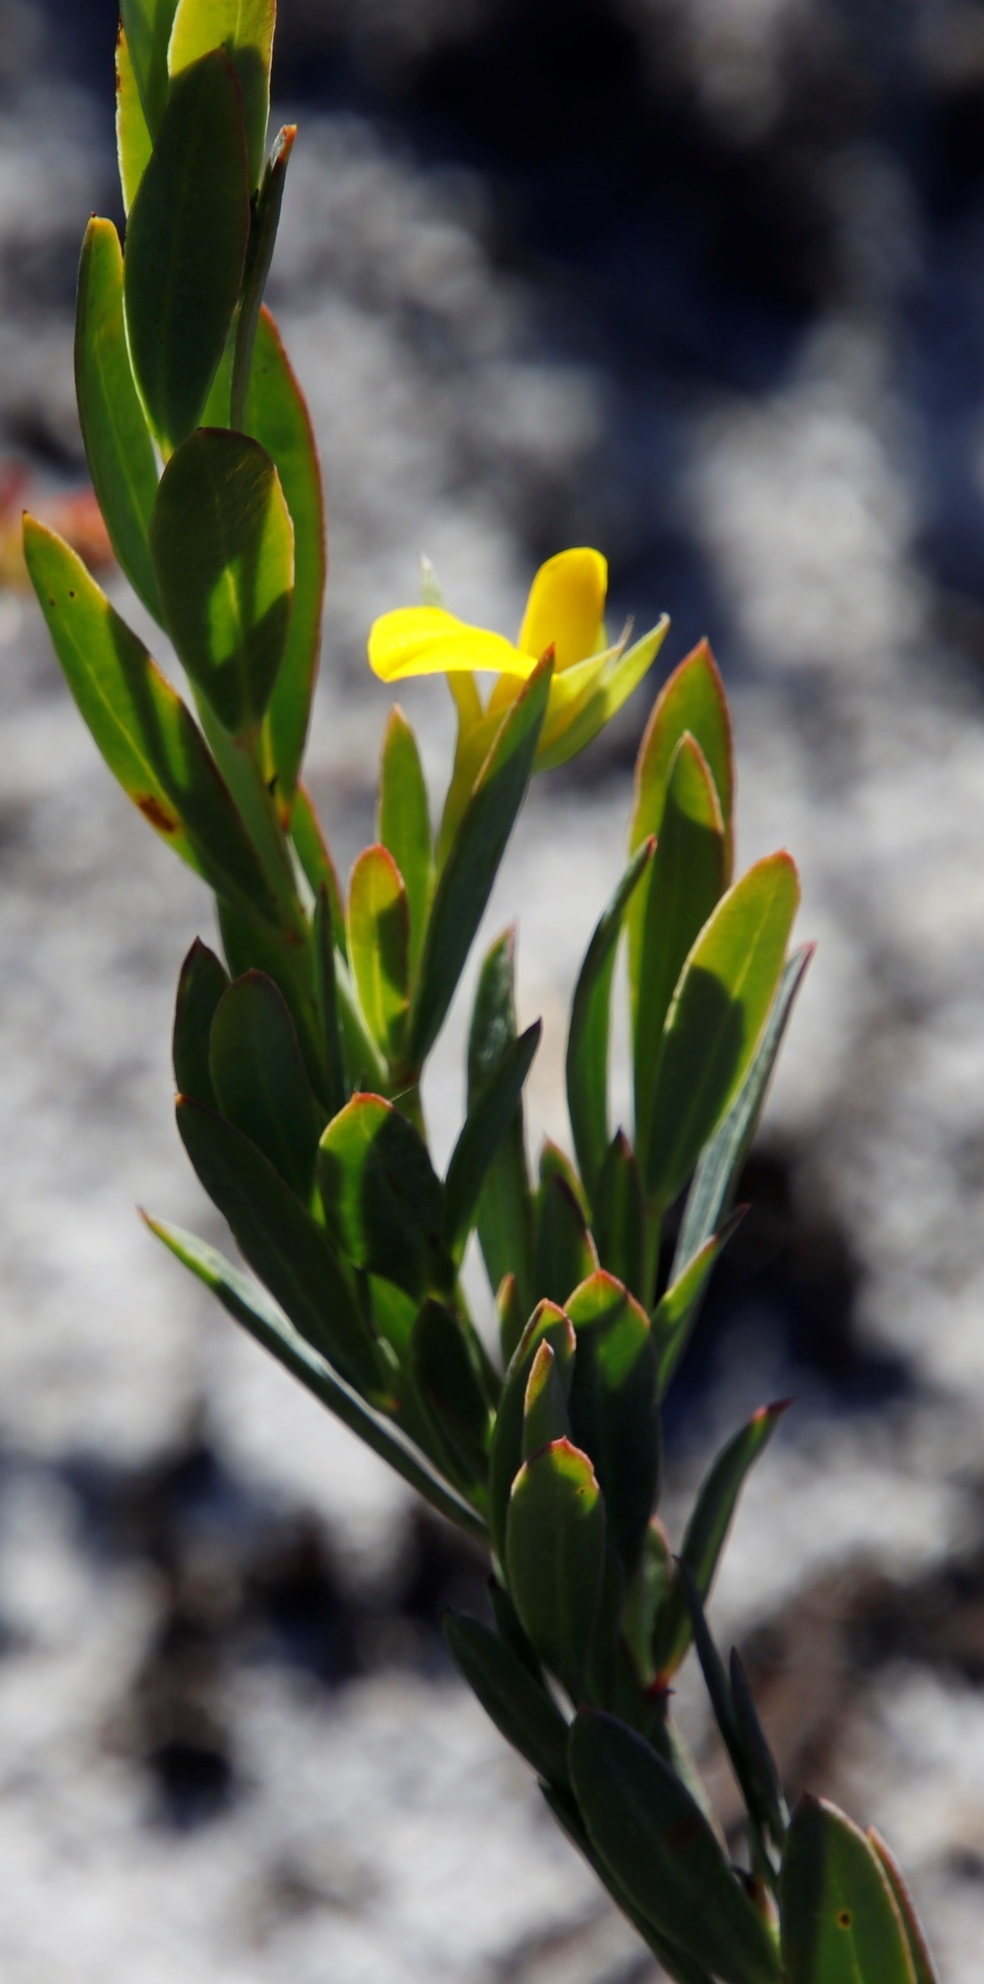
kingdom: Plantae
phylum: Tracheophyta
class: Magnoliopsida
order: Fabales
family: Fabaceae
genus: Rafnia
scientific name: Rafnia capensis
